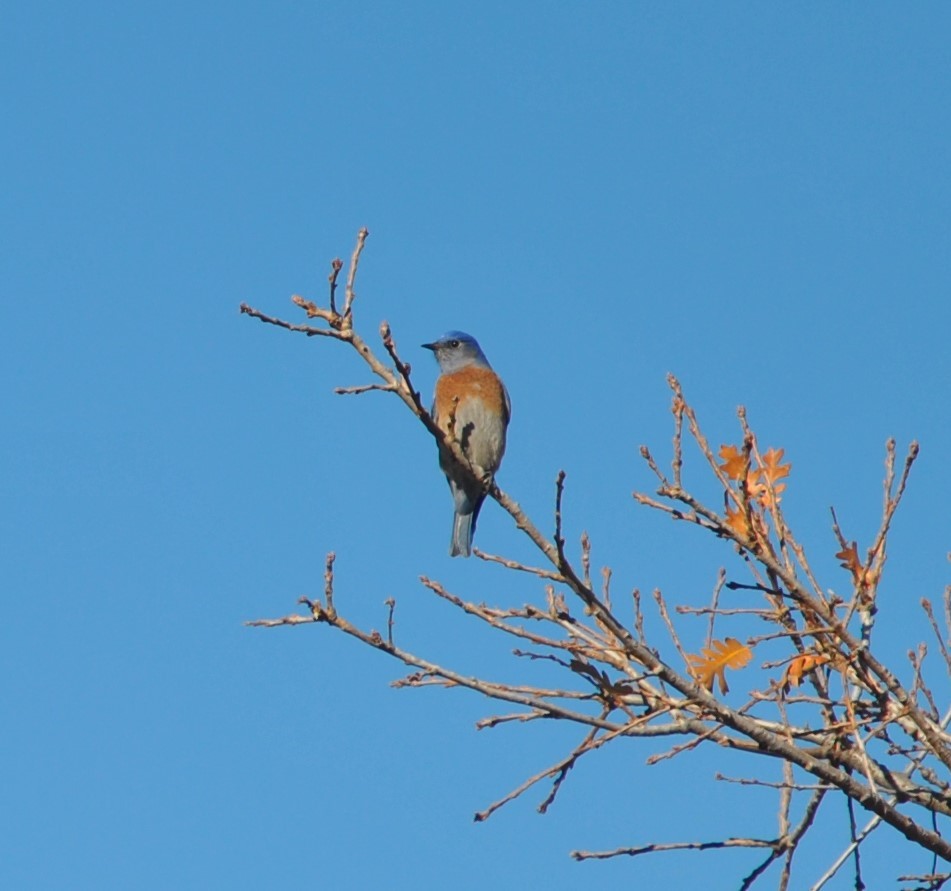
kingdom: Animalia
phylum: Chordata
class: Aves
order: Passeriformes
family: Turdidae
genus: Sialia
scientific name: Sialia mexicana
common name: Western bluebird
